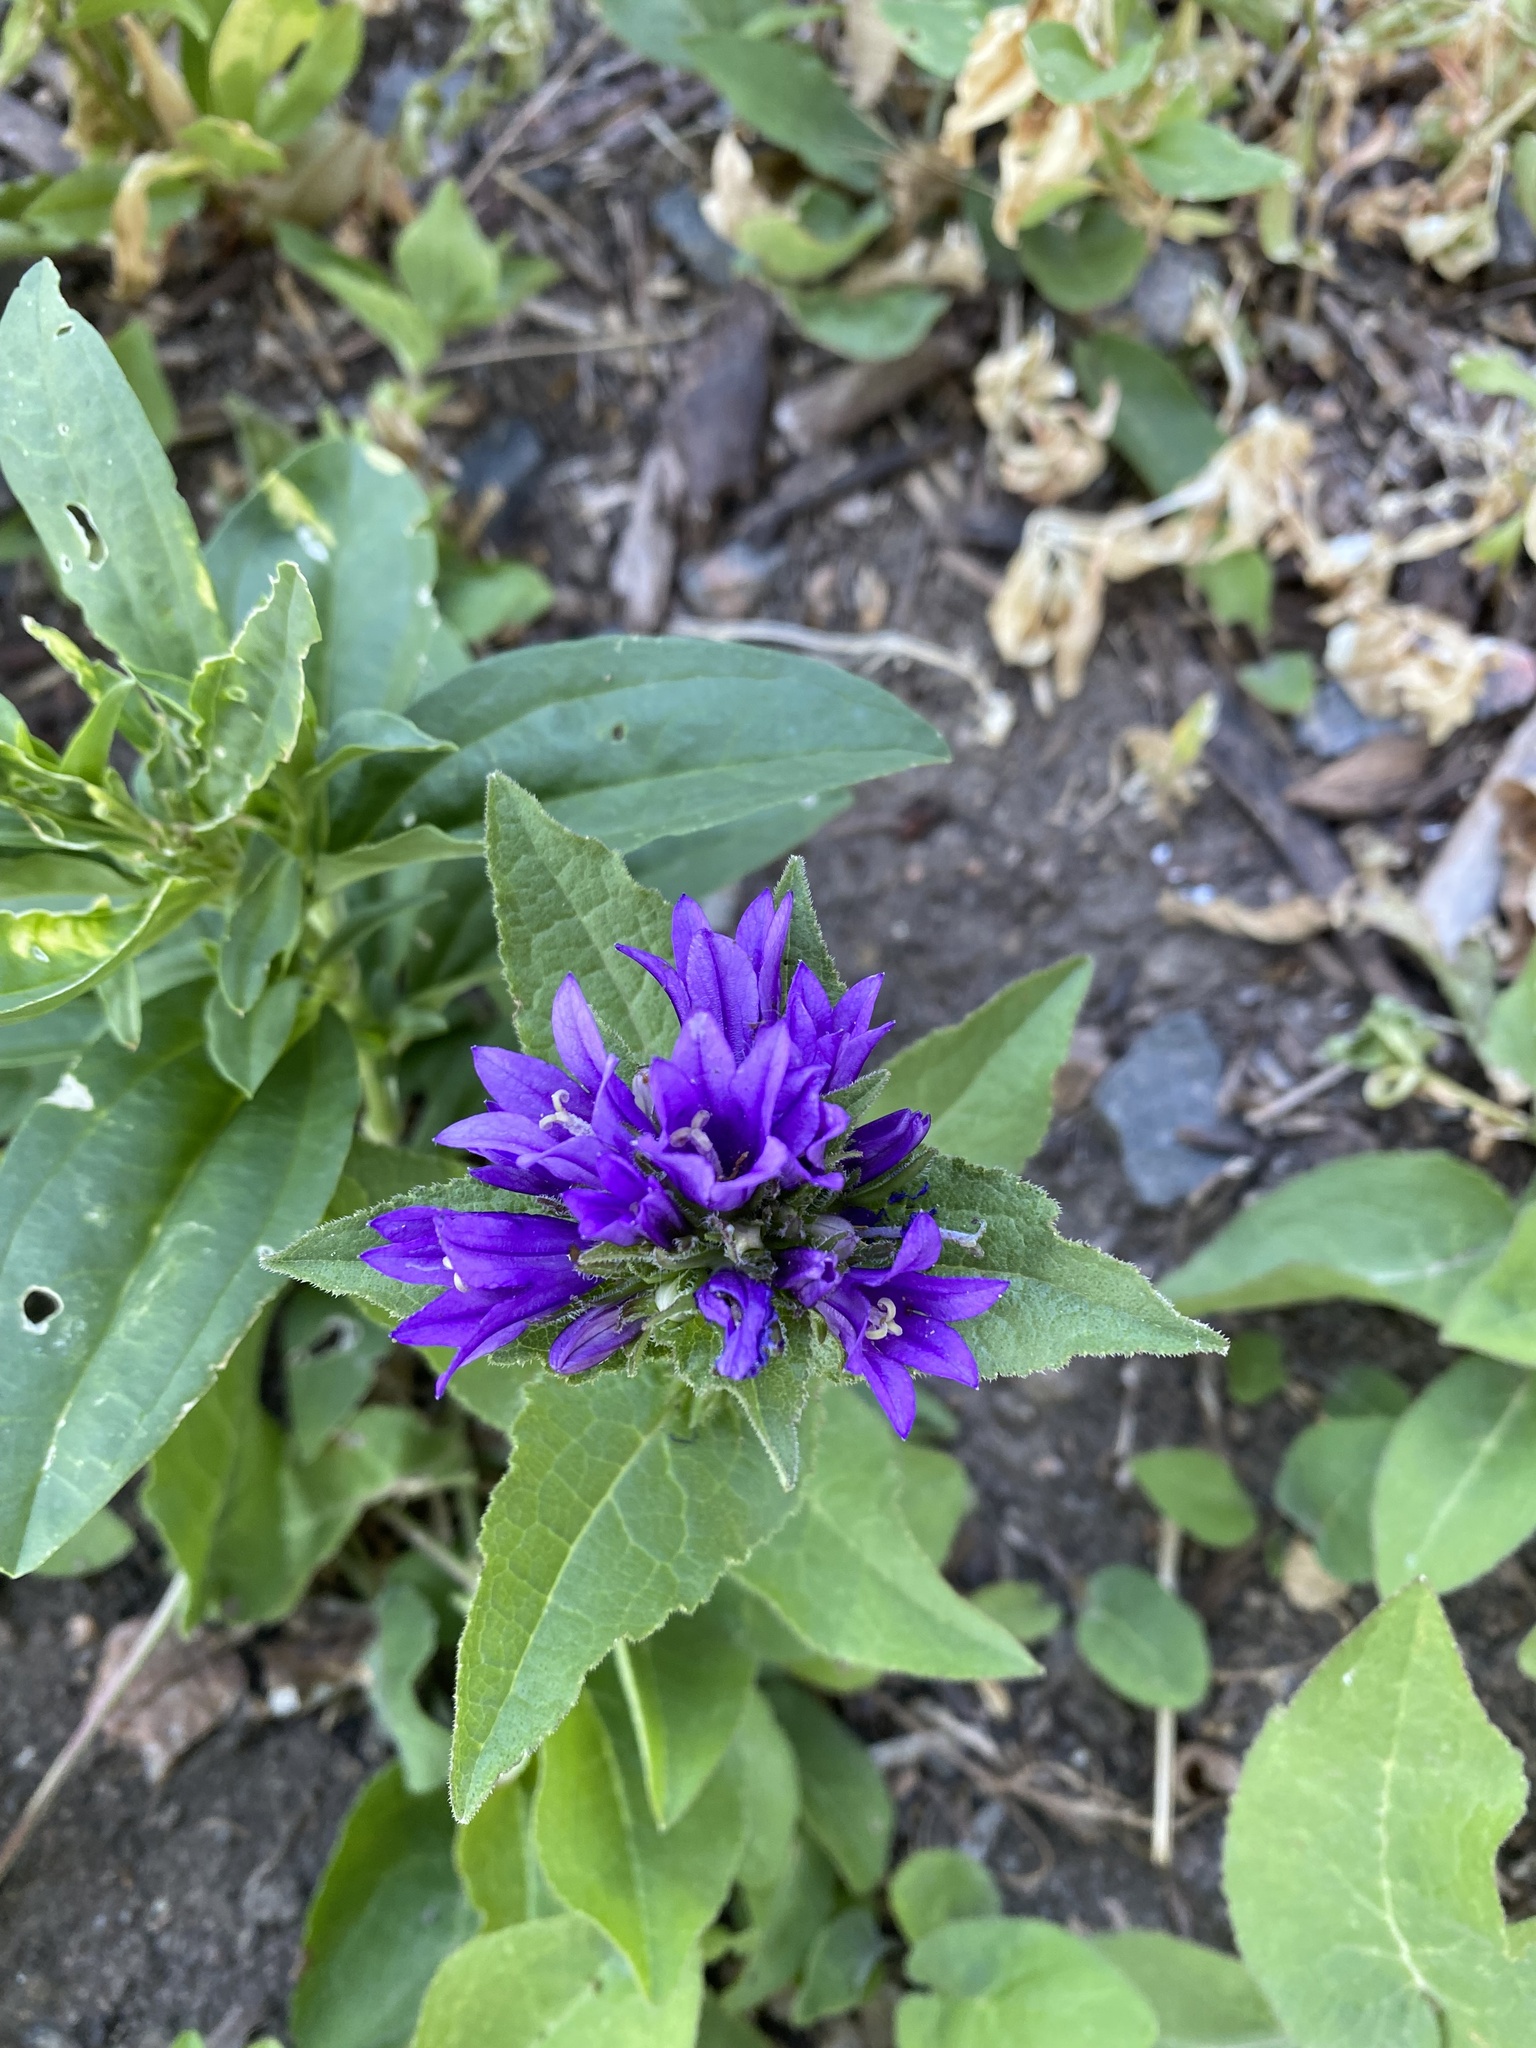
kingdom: Plantae
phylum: Tracheophyta
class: Magnoliopsida
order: Asterales
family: Campanulaceae
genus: Campanula
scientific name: Campanula glomerata
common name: Clustered bellflower
